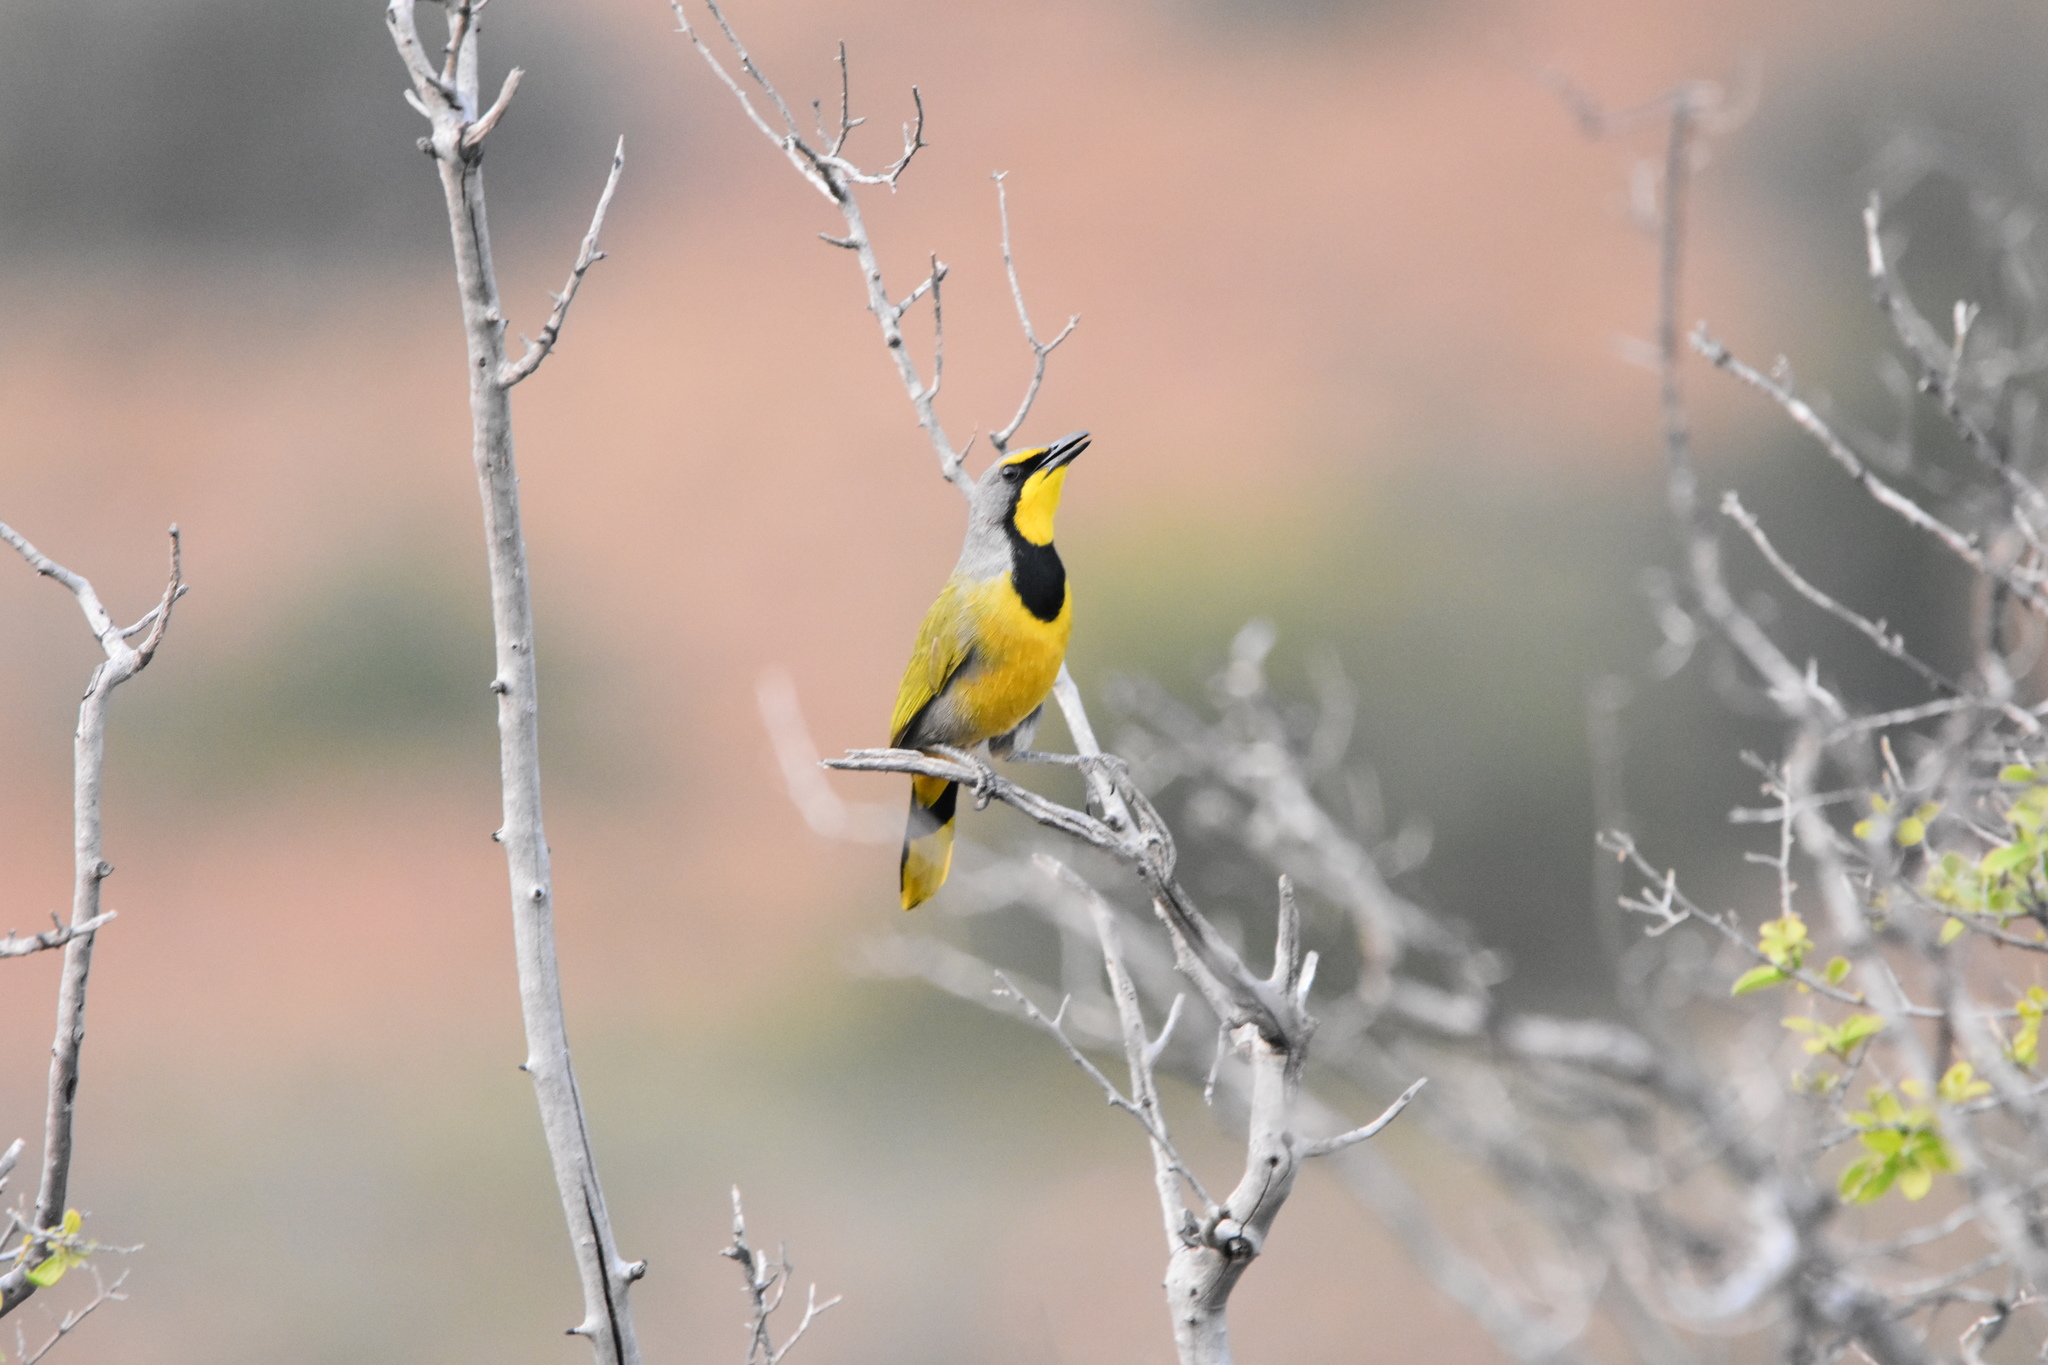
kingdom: Animalia
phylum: Chordata
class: Aves
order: Passeriformes
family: Malaconotidae
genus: Telophorus
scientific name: Telophorus zeylonus
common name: Bokmakierie
